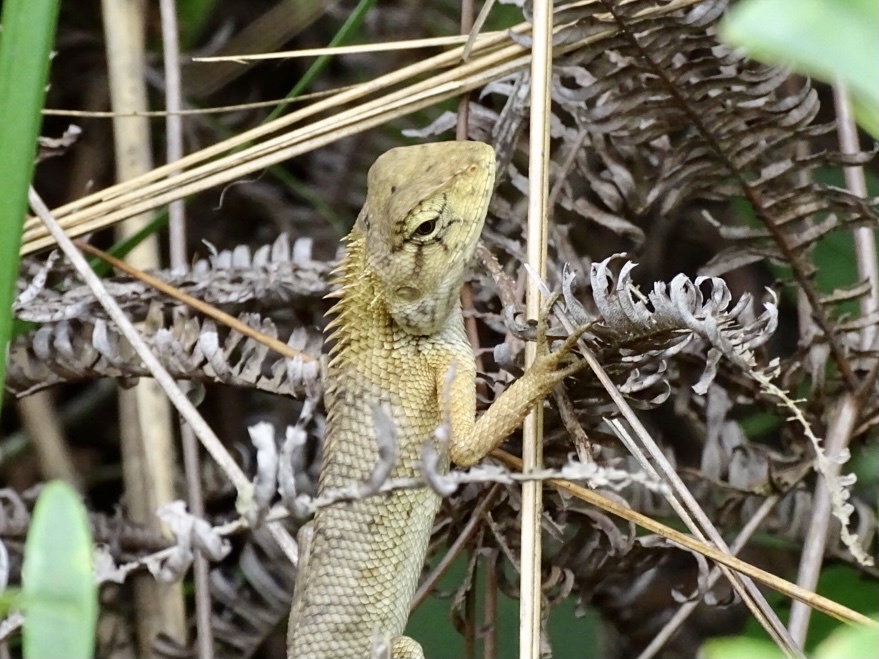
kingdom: Animalia
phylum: Chordata
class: Squamata
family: Agamidae
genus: Calotes
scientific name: Calotes versicolor
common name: Oriental garden lizard
